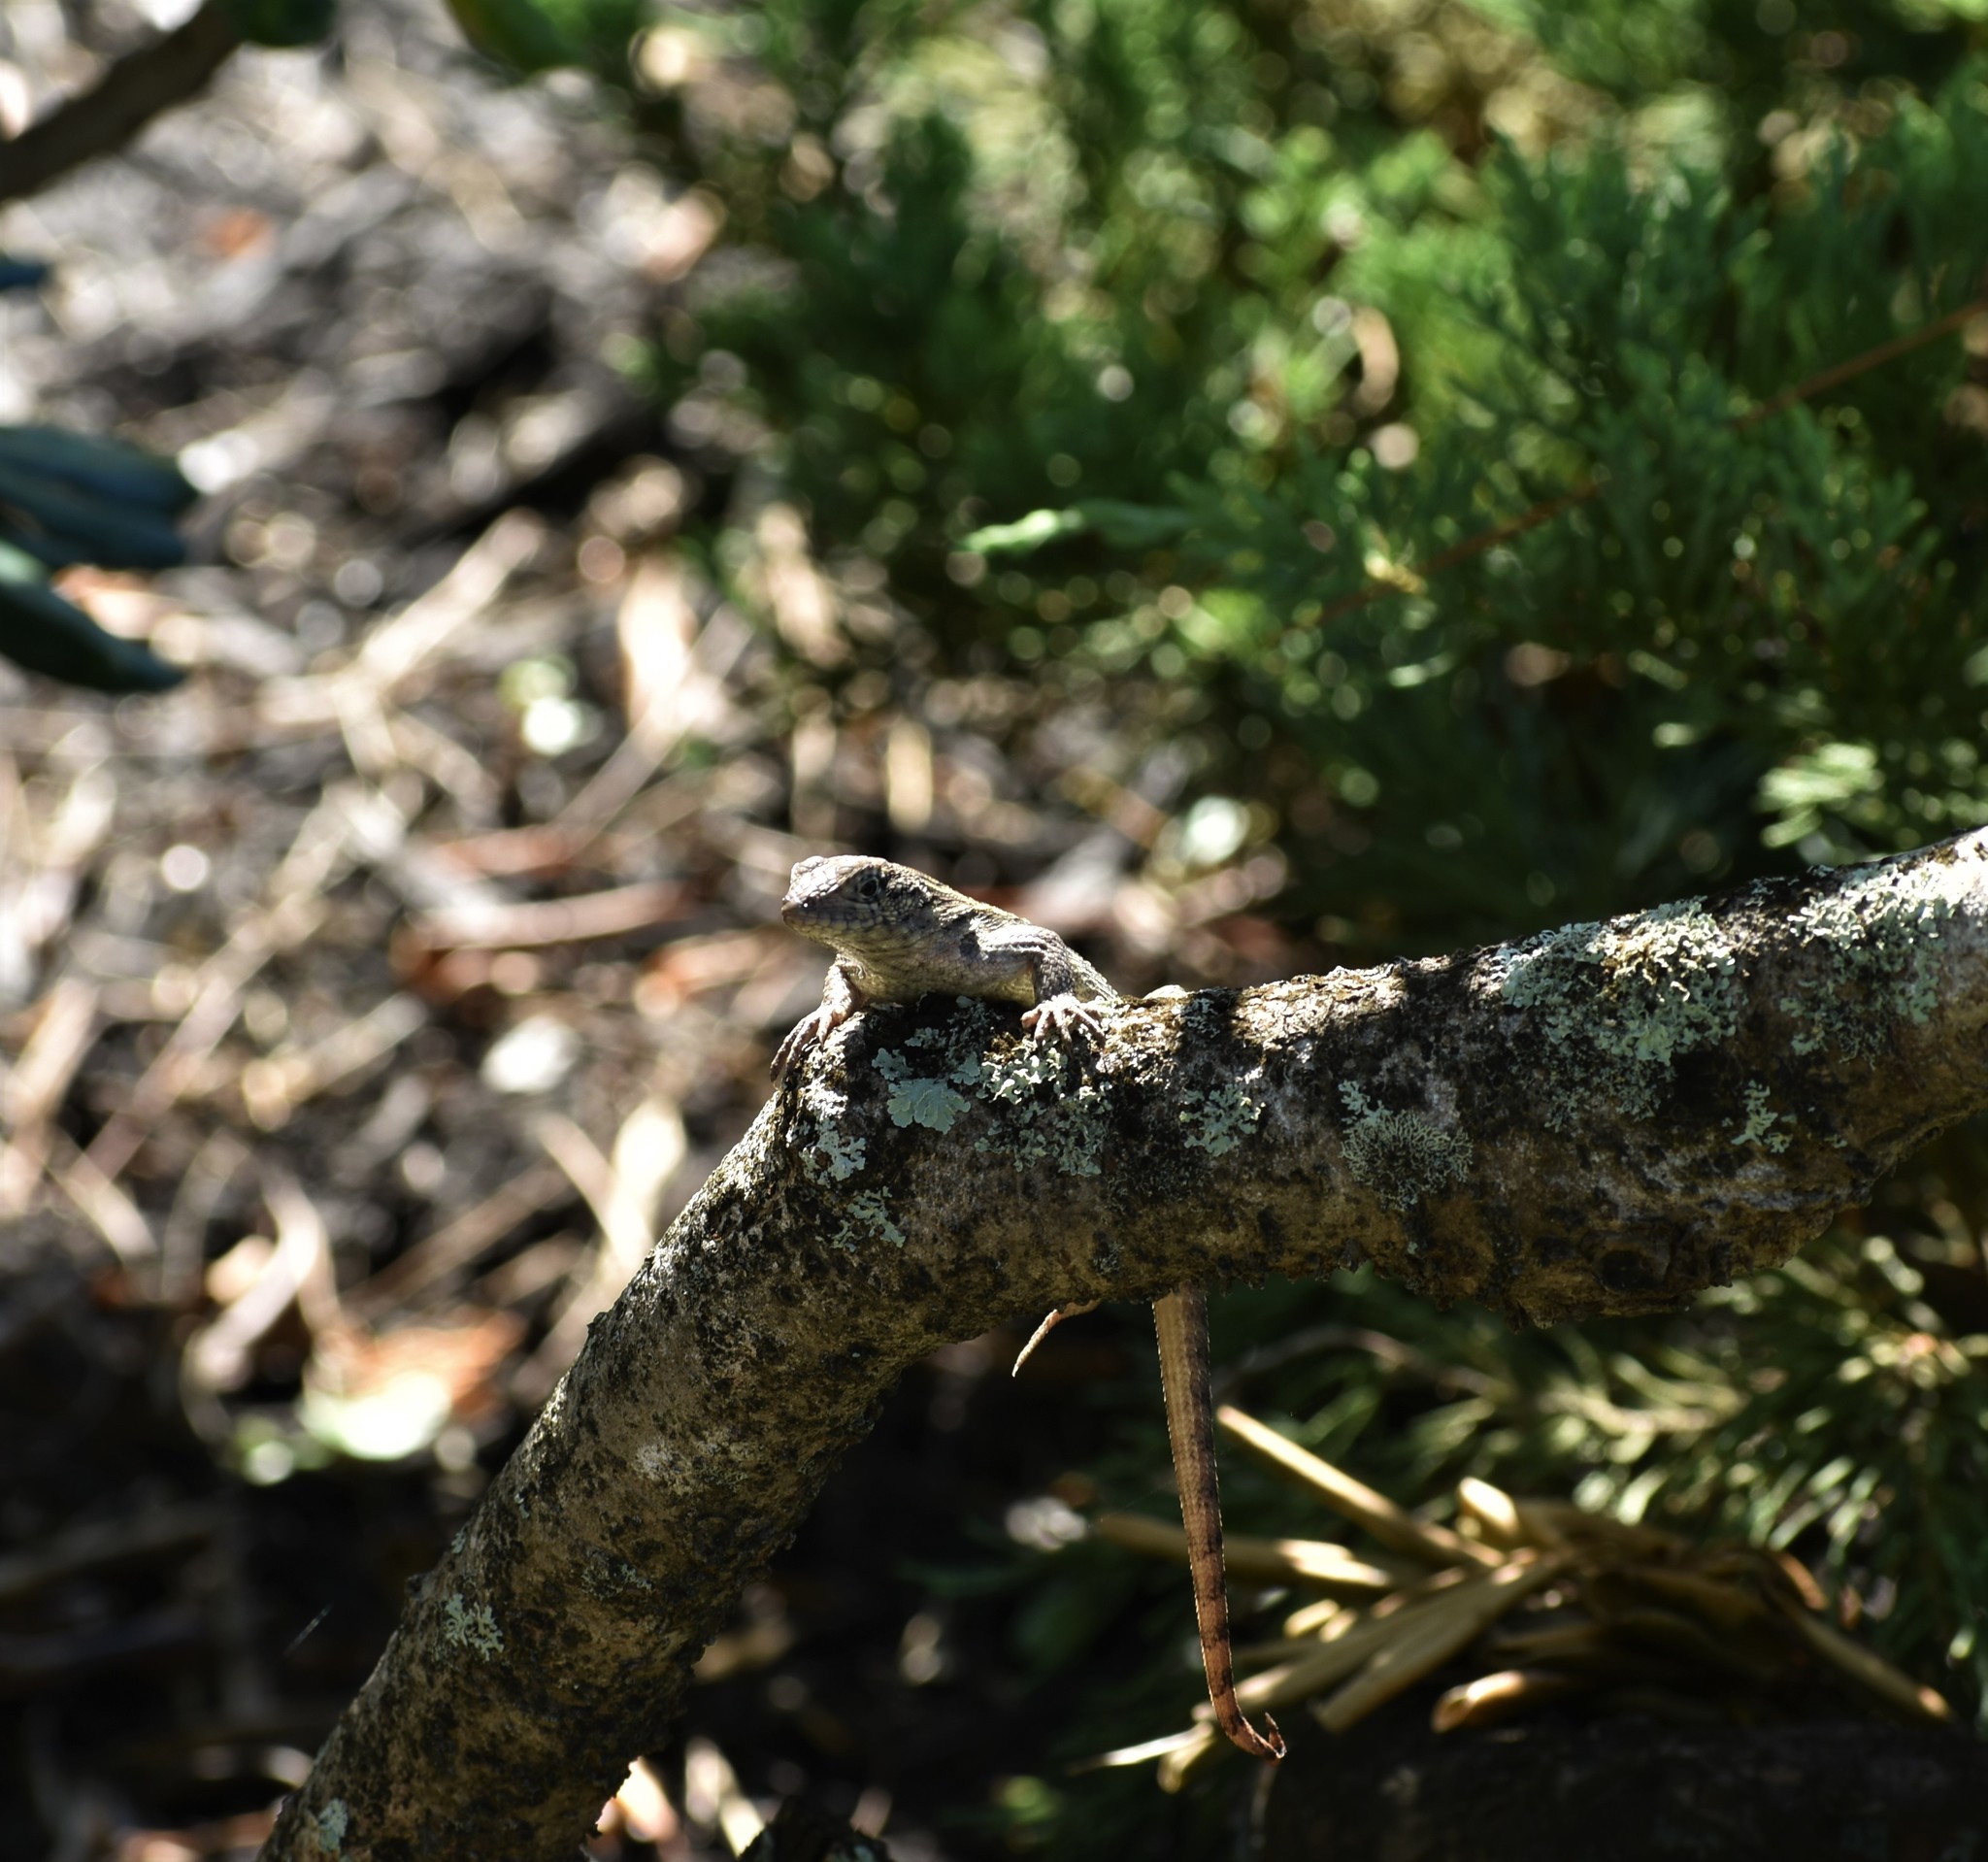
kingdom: Animalia
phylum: Chordata
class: Squamata
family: Leiocephalidae
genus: Leiocephalus
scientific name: Leiocephalus carinatus
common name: Northern curly-tailed lizard
